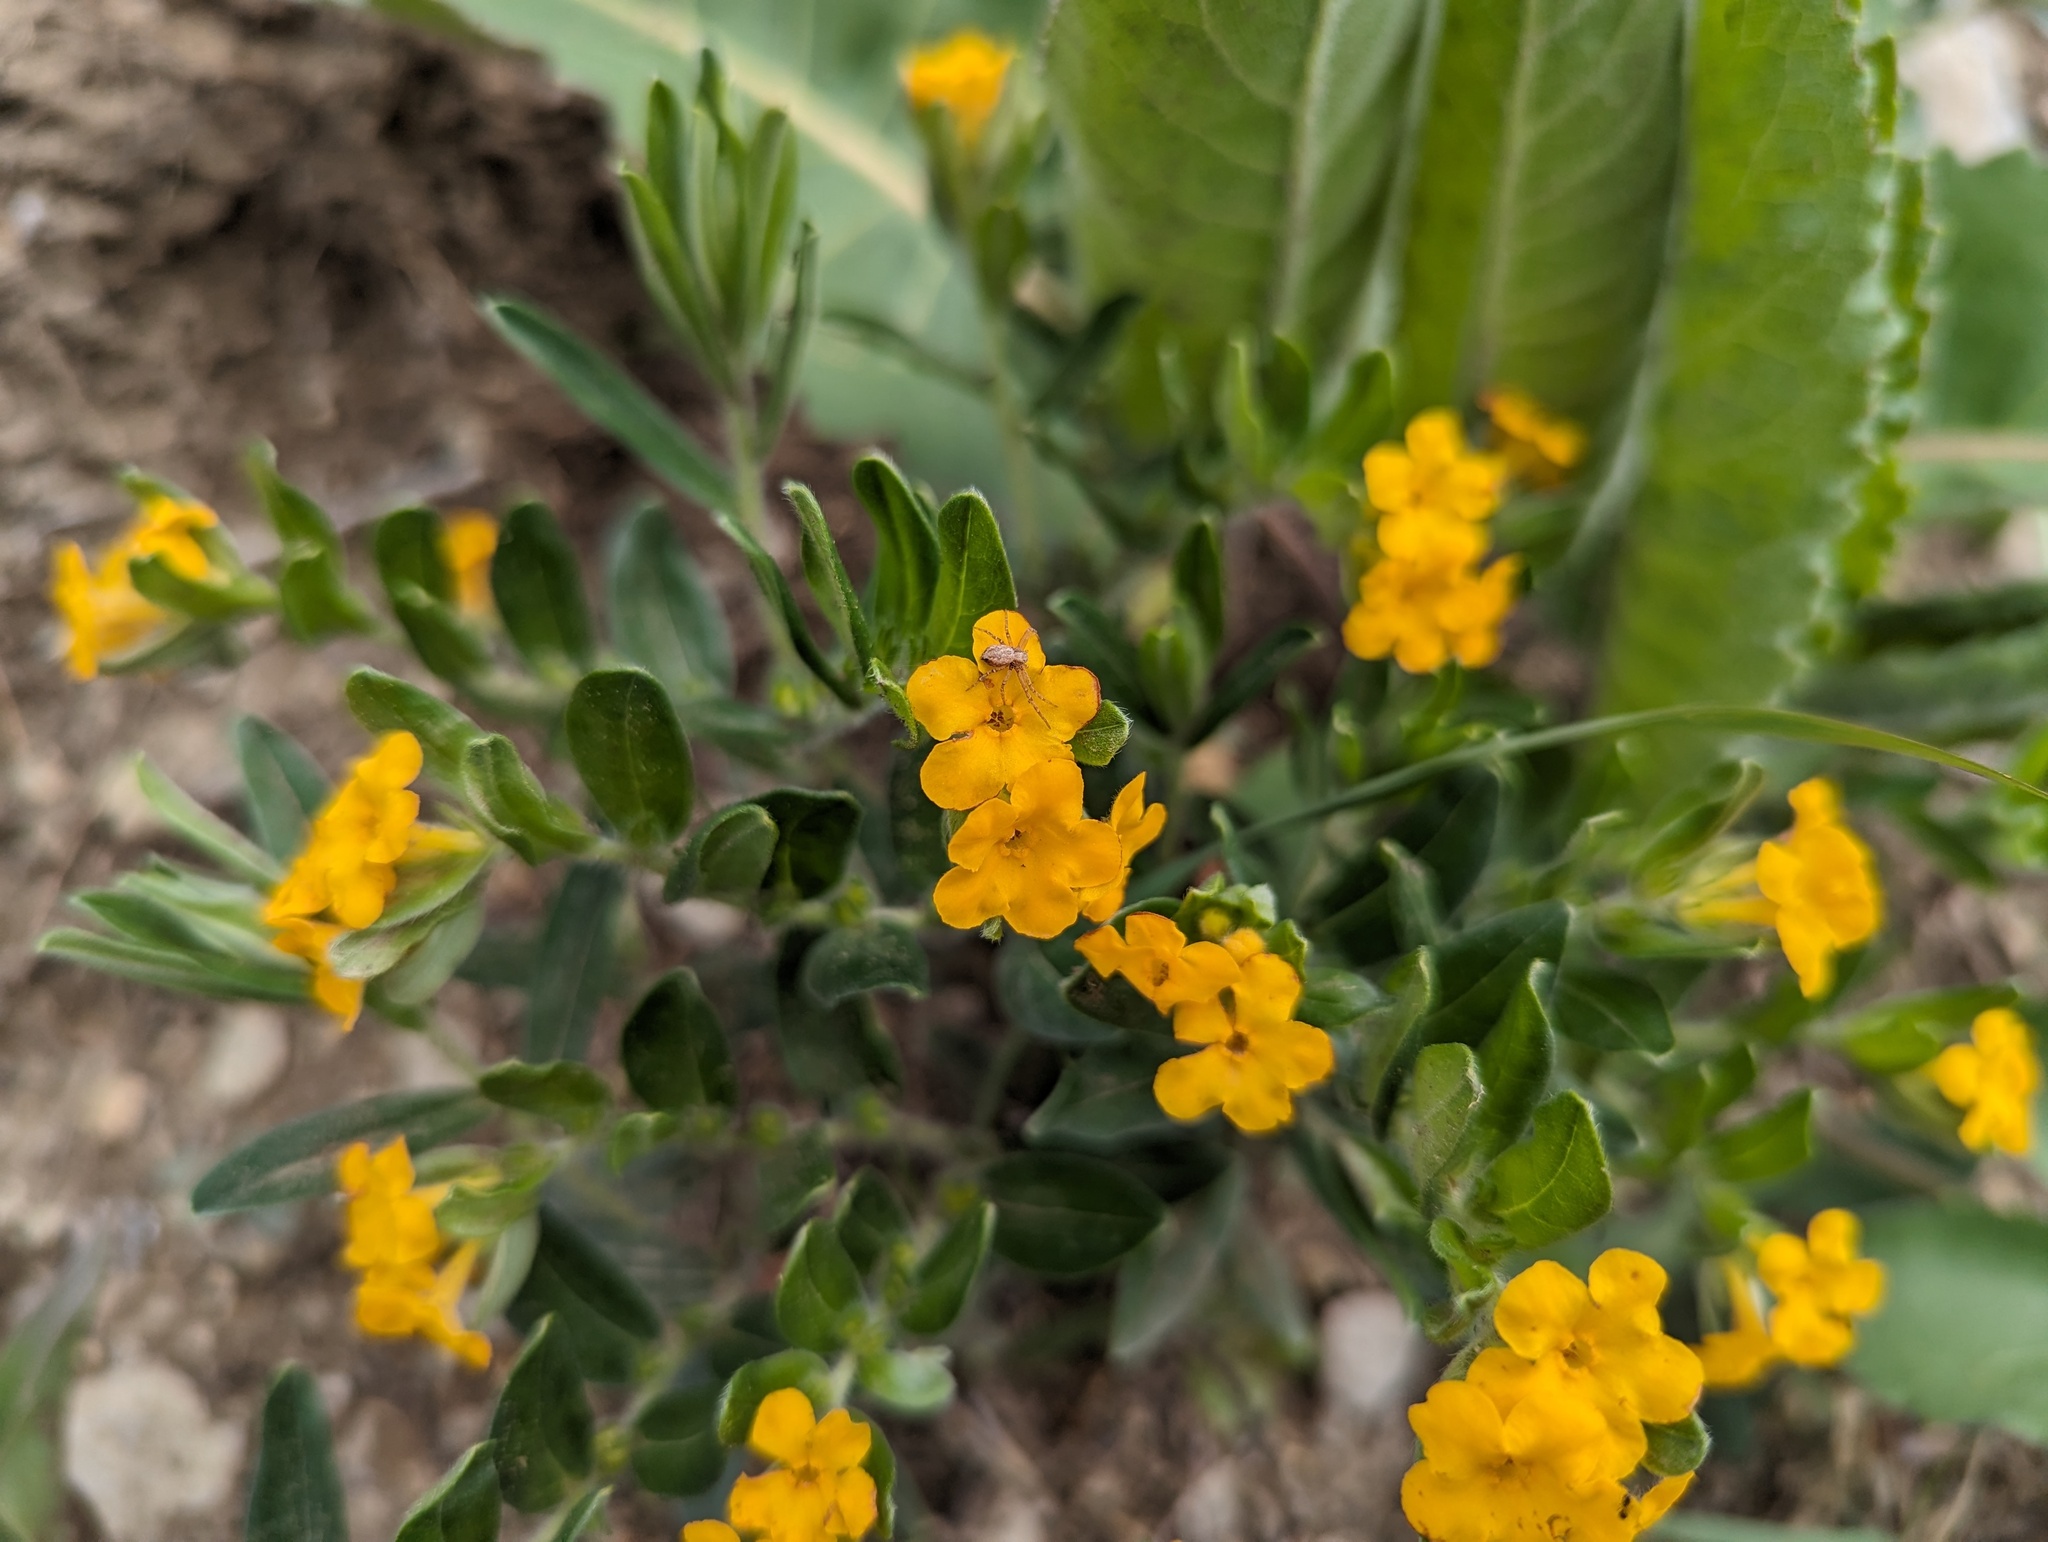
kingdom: Plantae
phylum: Tracheophyta
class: Magnoliopsida
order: Boraginales
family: Boraginaceae
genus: Lithospermum
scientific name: Lithospermum canescens
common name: Hoary puccoon
